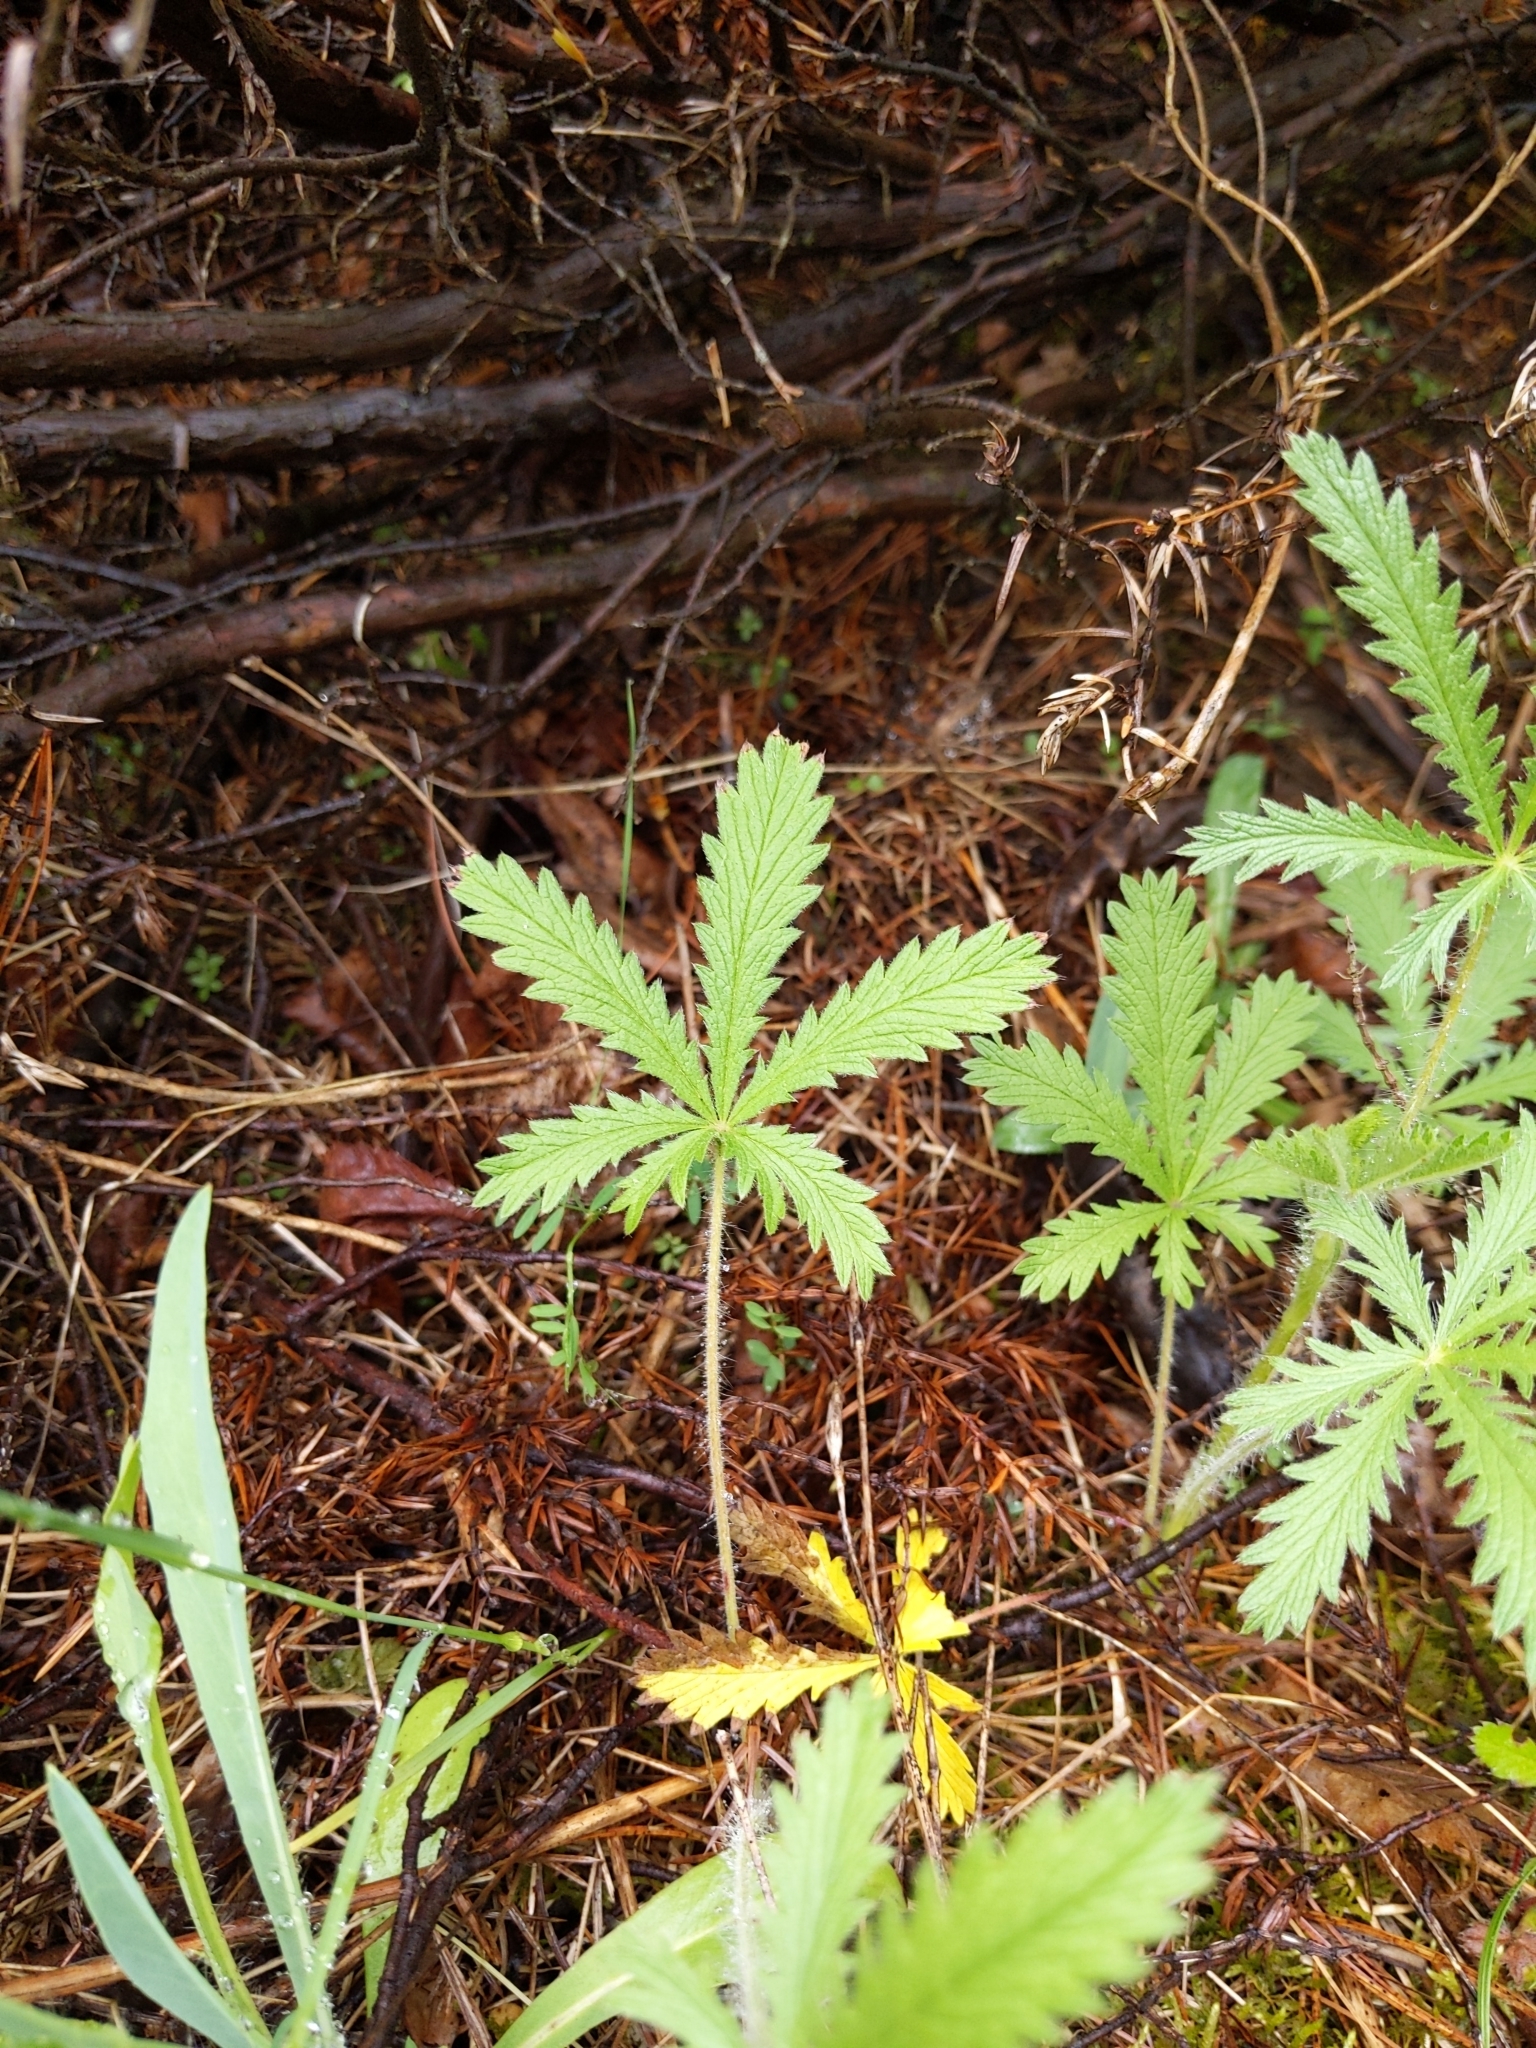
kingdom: Plantae
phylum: Tracheophyta
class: Magnoliopsida
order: Rosales
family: Rosaceae
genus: Potentilla
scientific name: Potentilla recta
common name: Sulphur cinquefoil
